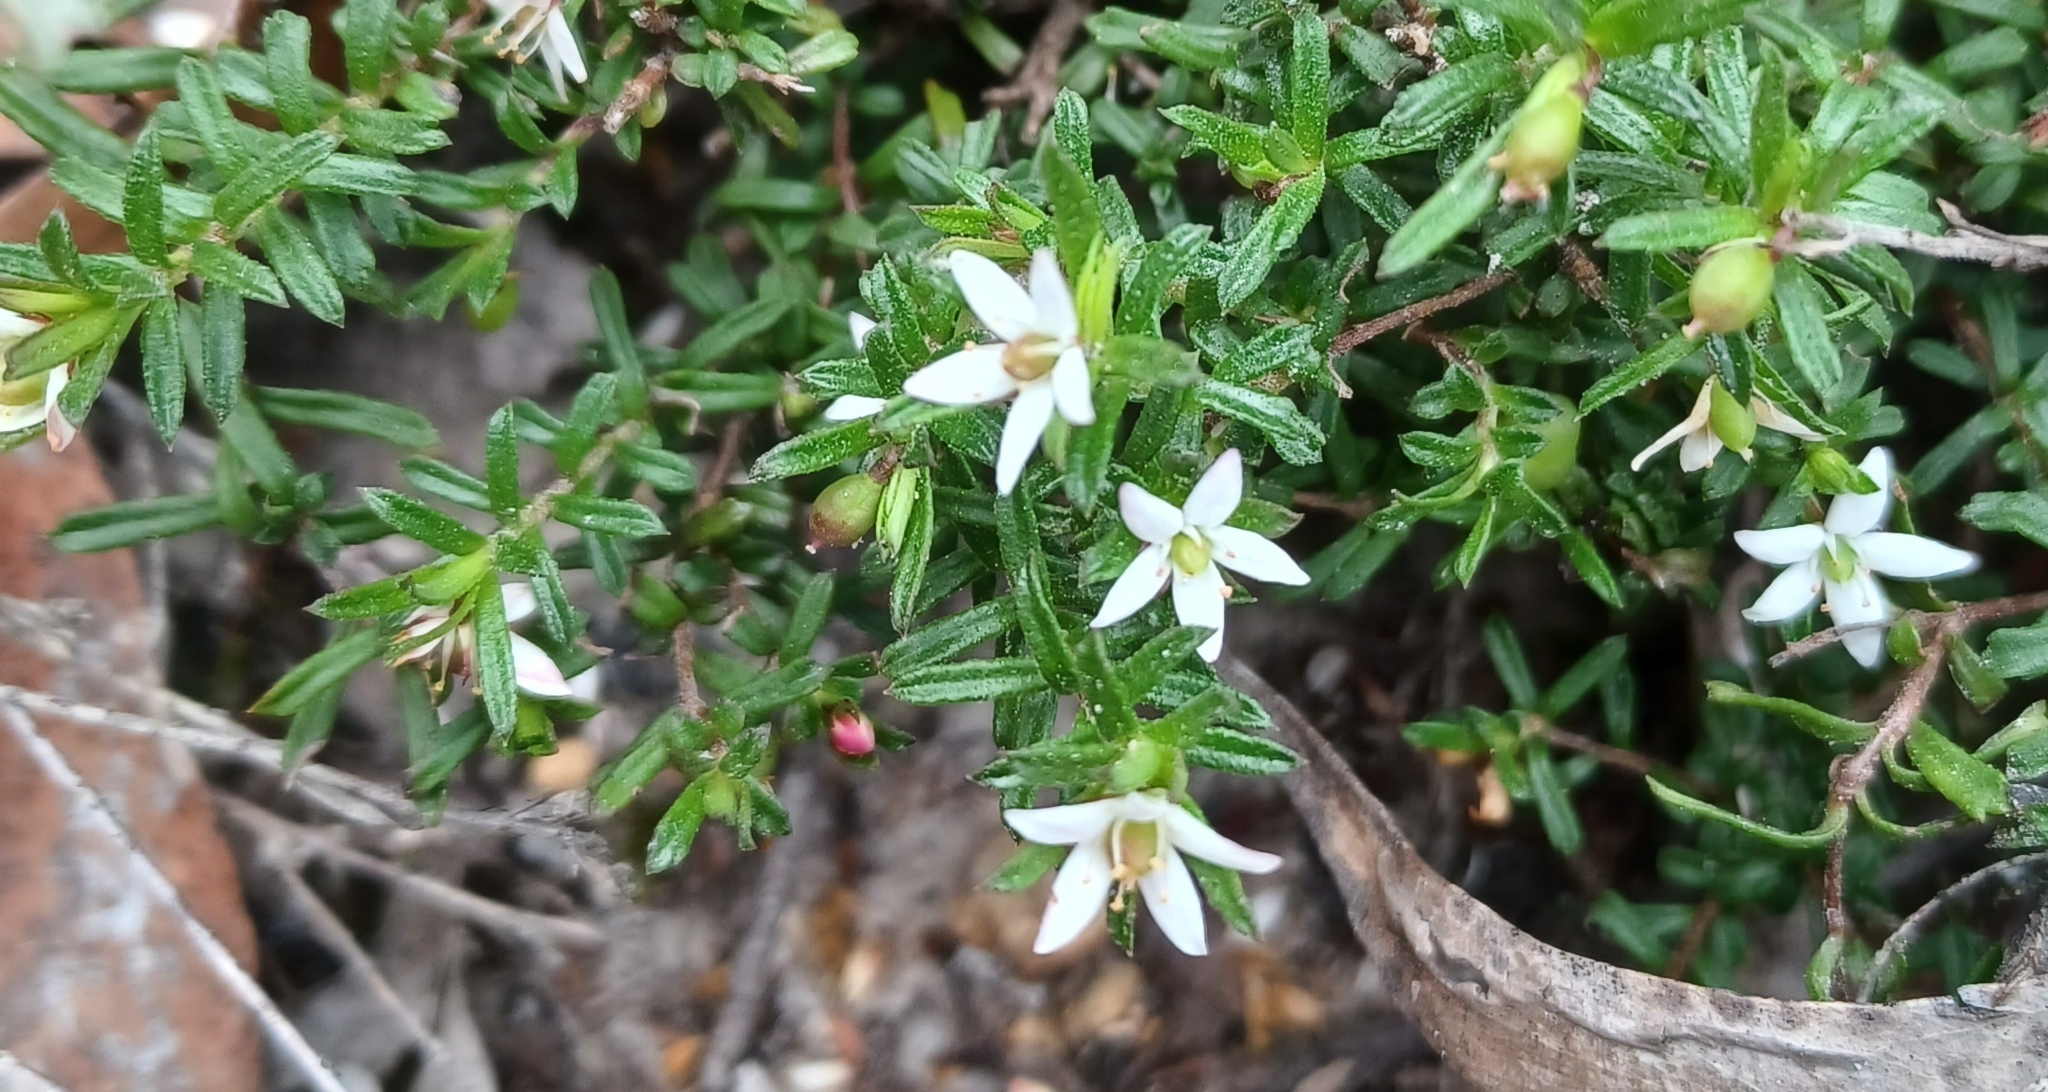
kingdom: Plantae
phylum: Tracheophyta
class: Magnoliopsida
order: Apiales
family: Pittosporaceae
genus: Rhytidosporum
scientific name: Rhytidosporum procumbens
